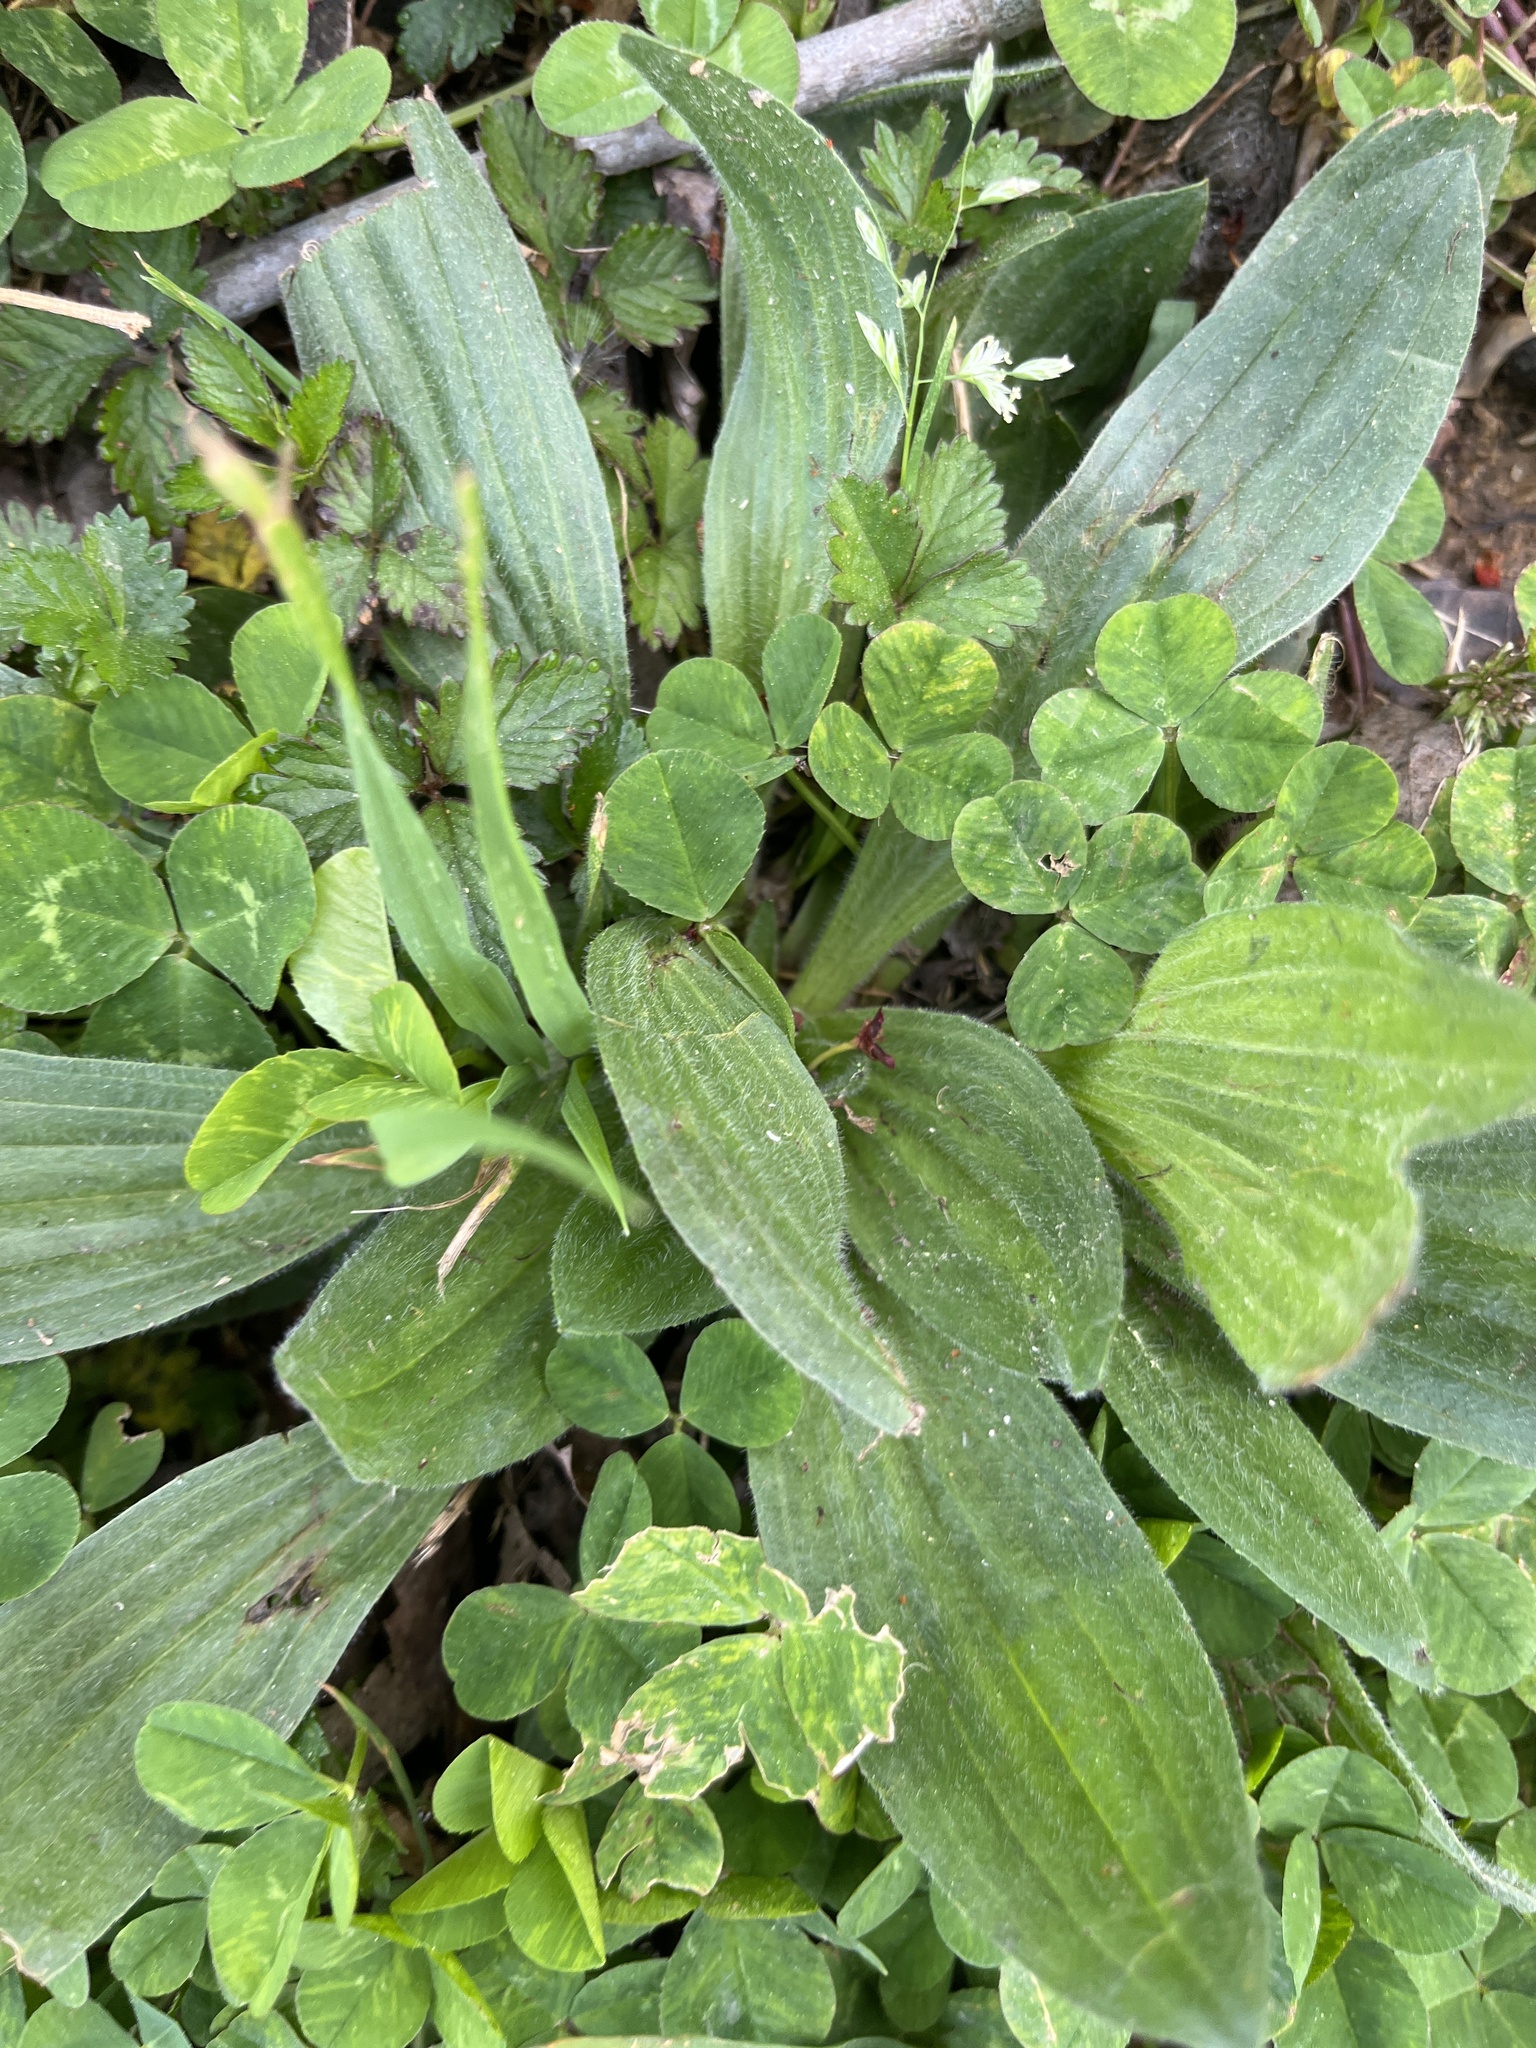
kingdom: Plantae
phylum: Tracheophyta
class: Magnoliopsida
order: Lamiales
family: Plantaginaceae
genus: Plantago
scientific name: Plantago lanceolata
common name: Ribwort plantain
